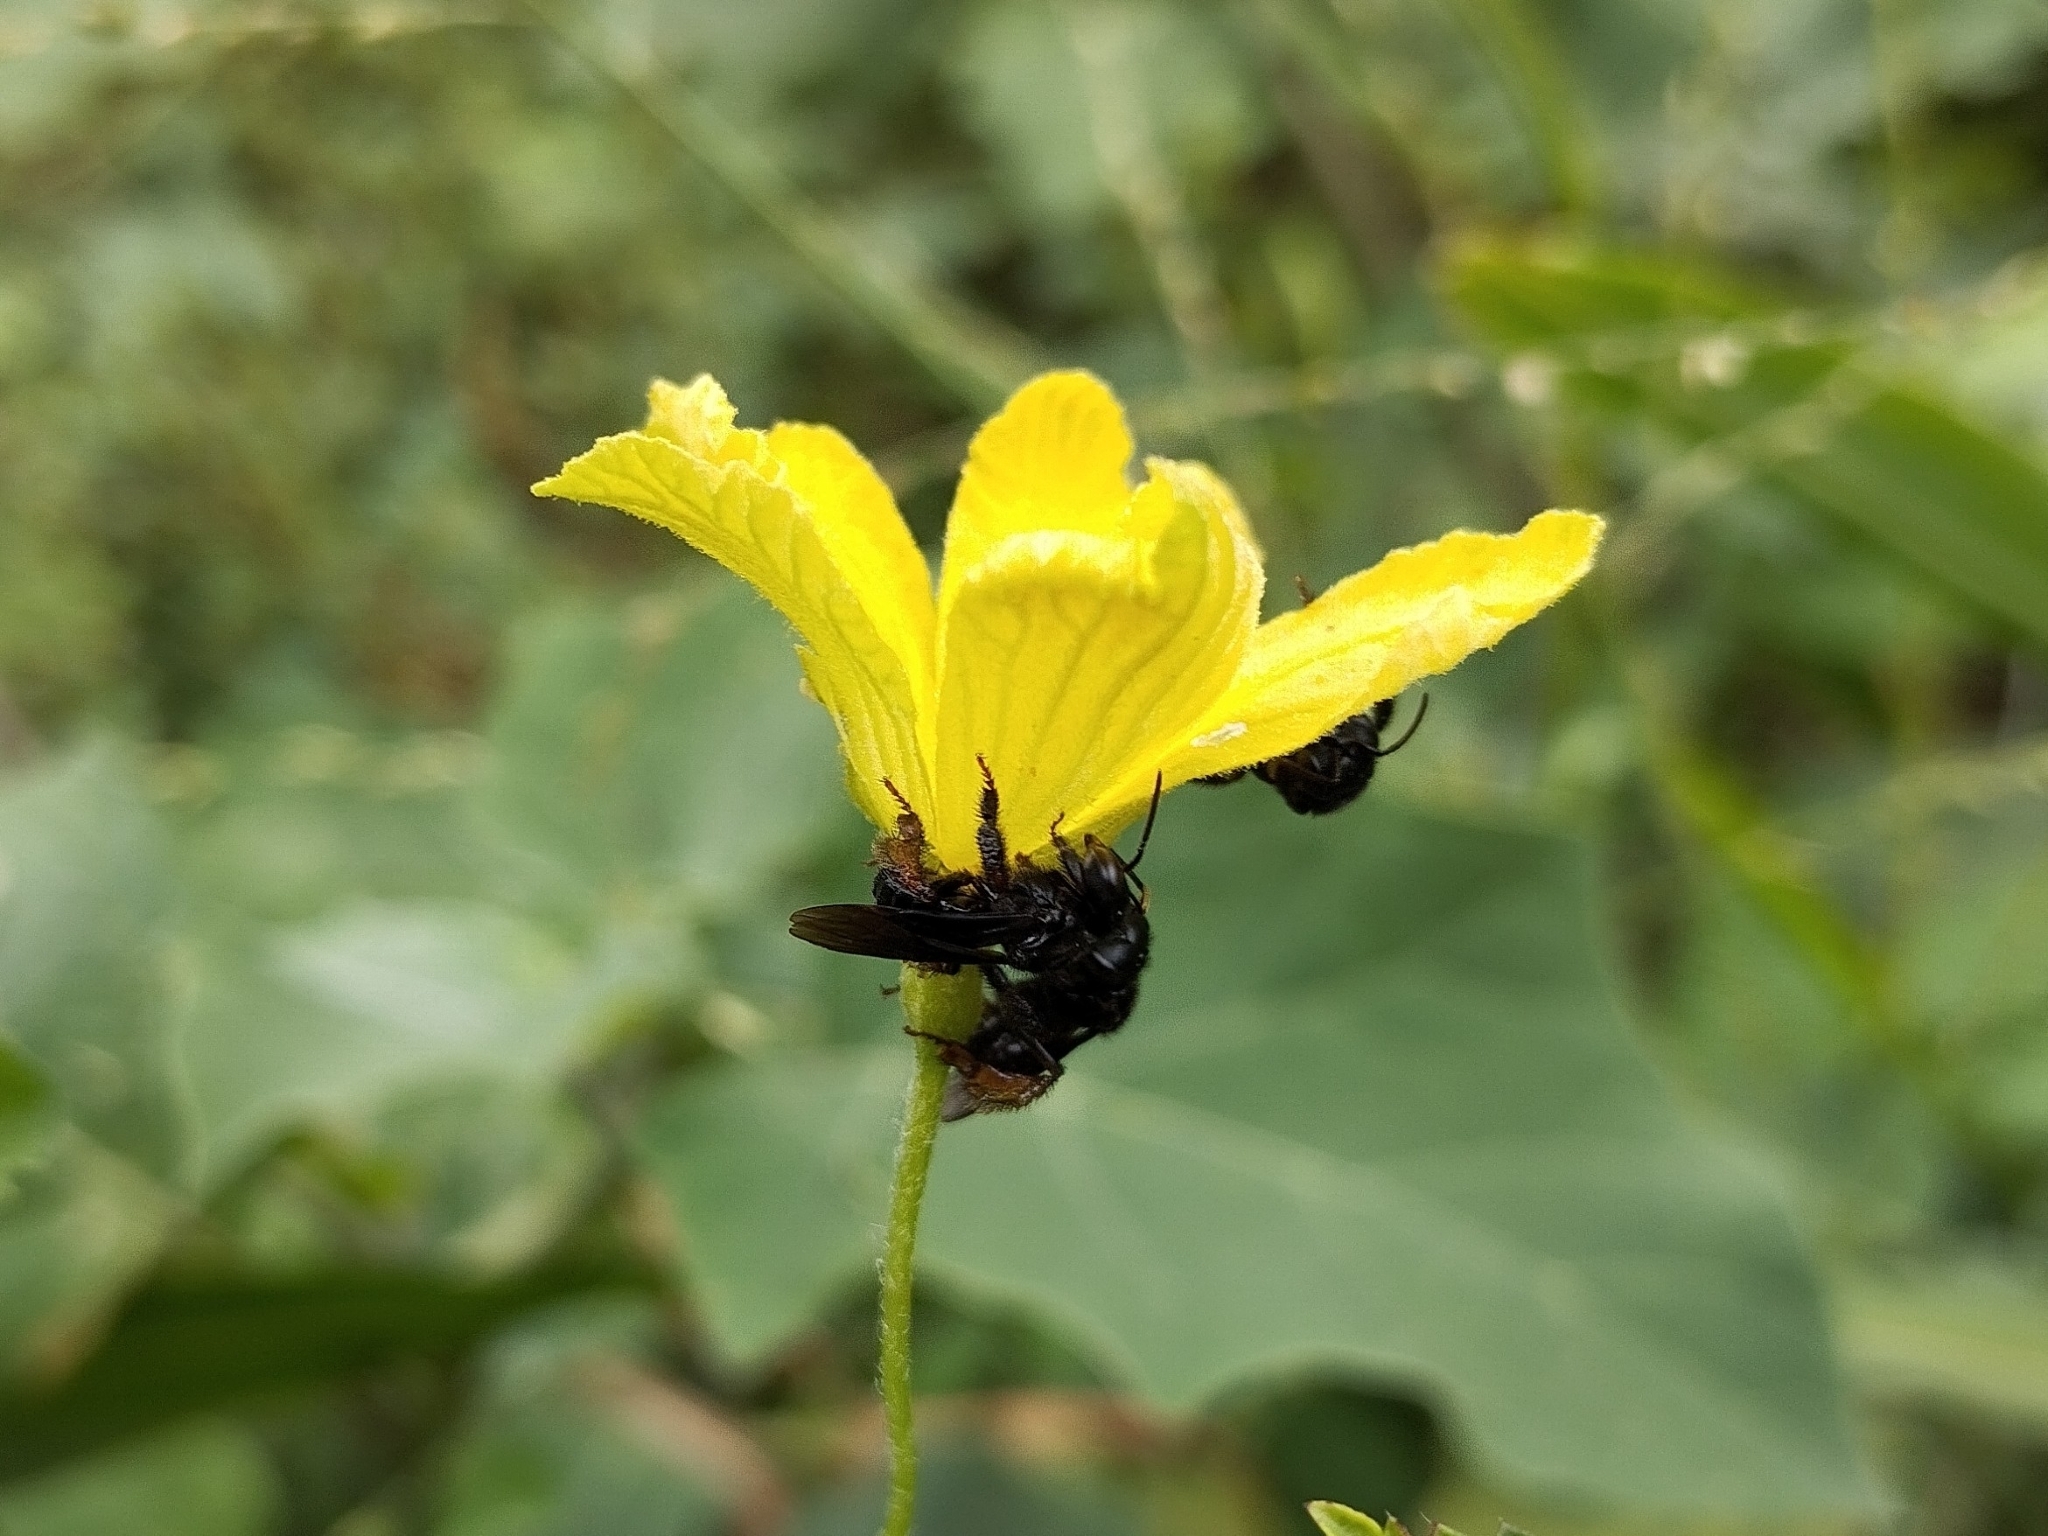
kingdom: Animalia
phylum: Arthropoda
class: Insecta
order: Hymenoptera
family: Apidae
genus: Trigona
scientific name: Trigona spinipes
